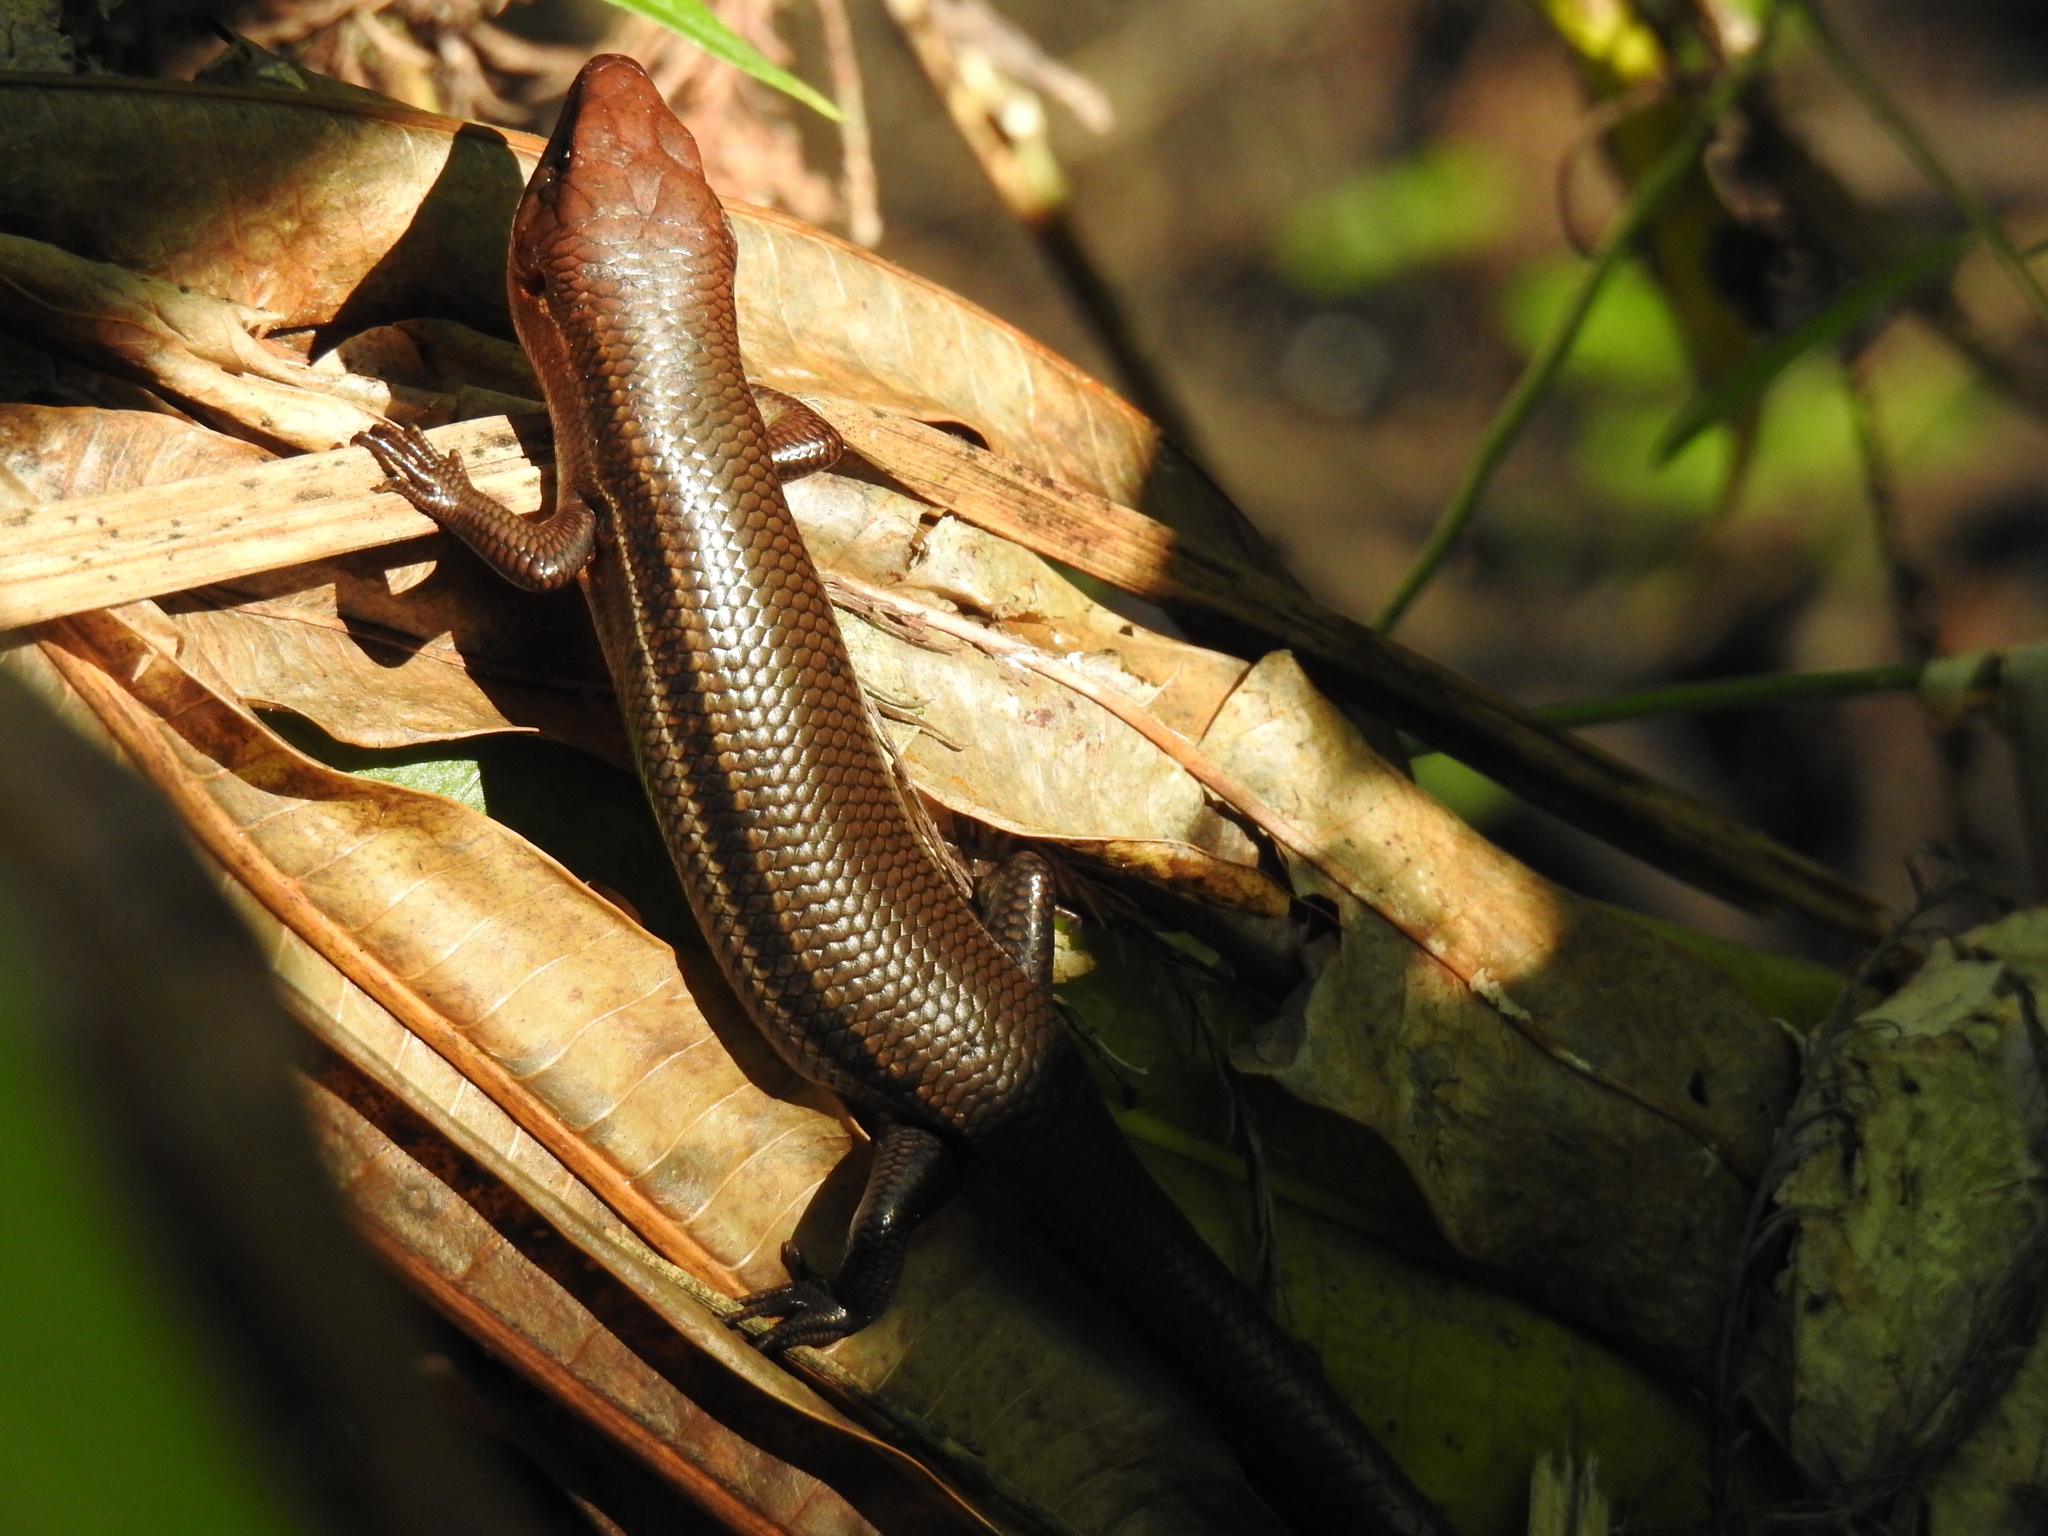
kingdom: Animalia
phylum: Chordata
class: Squamata
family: Scincidae
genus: Plestiodon
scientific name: Plestiodon inexpectatus
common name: Southeastern five-lined skink
